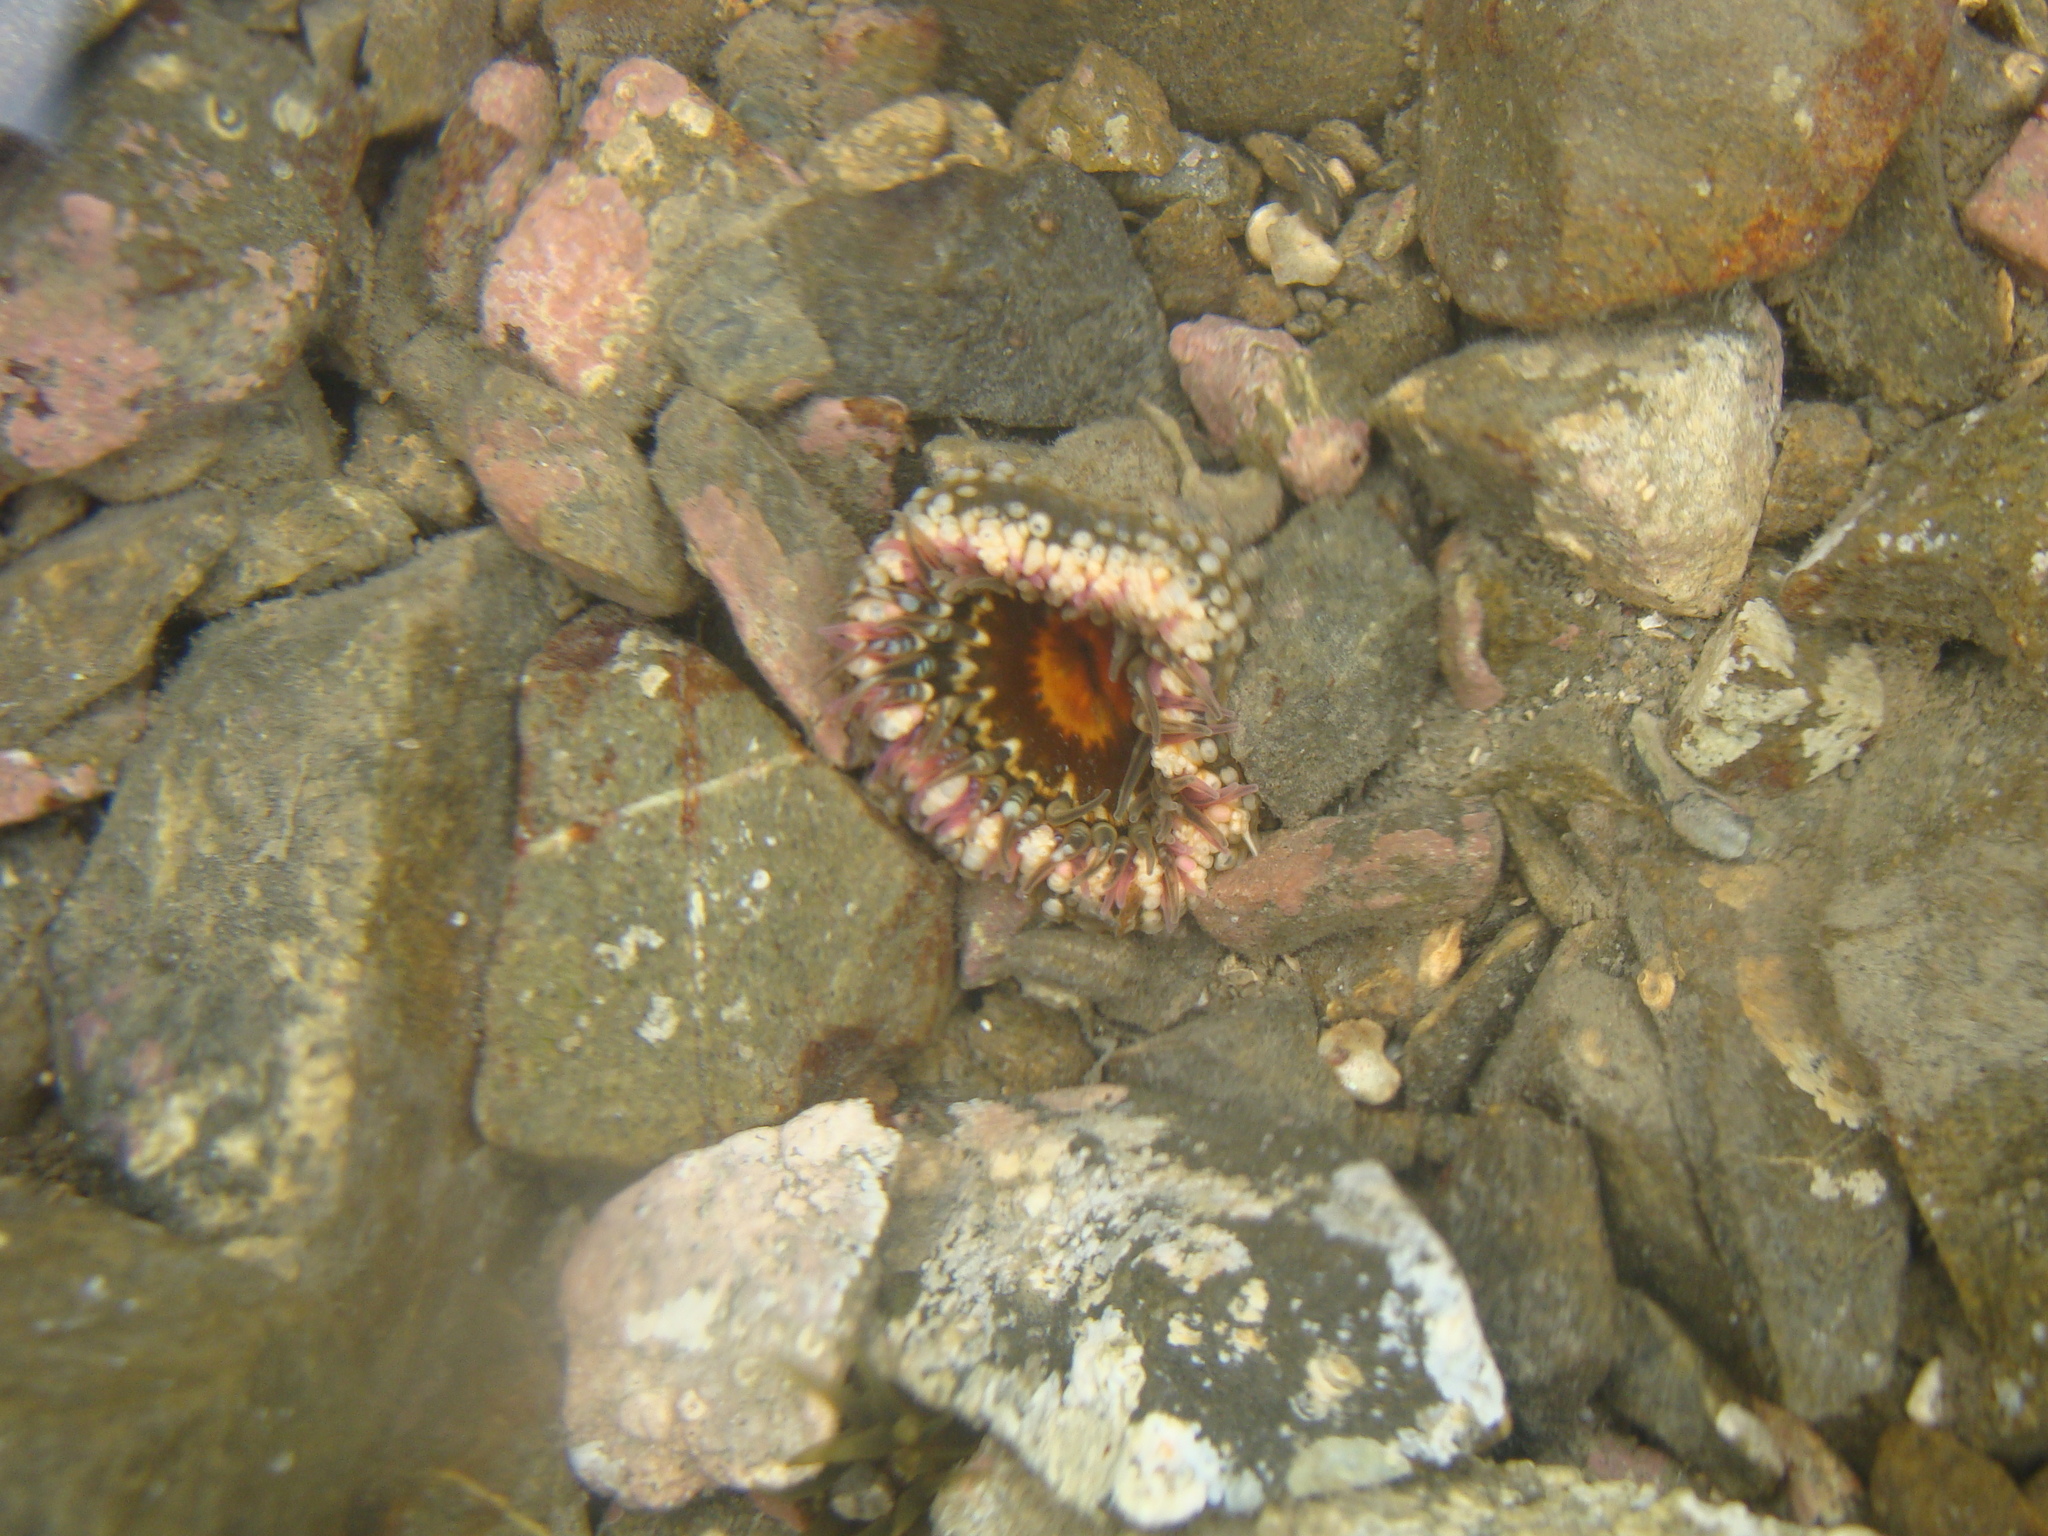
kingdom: Animalia
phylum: Cnidaria
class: Anthozoa
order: Actiniaria
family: Actiniidae
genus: Oulactis
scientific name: Oulactis muscosa
